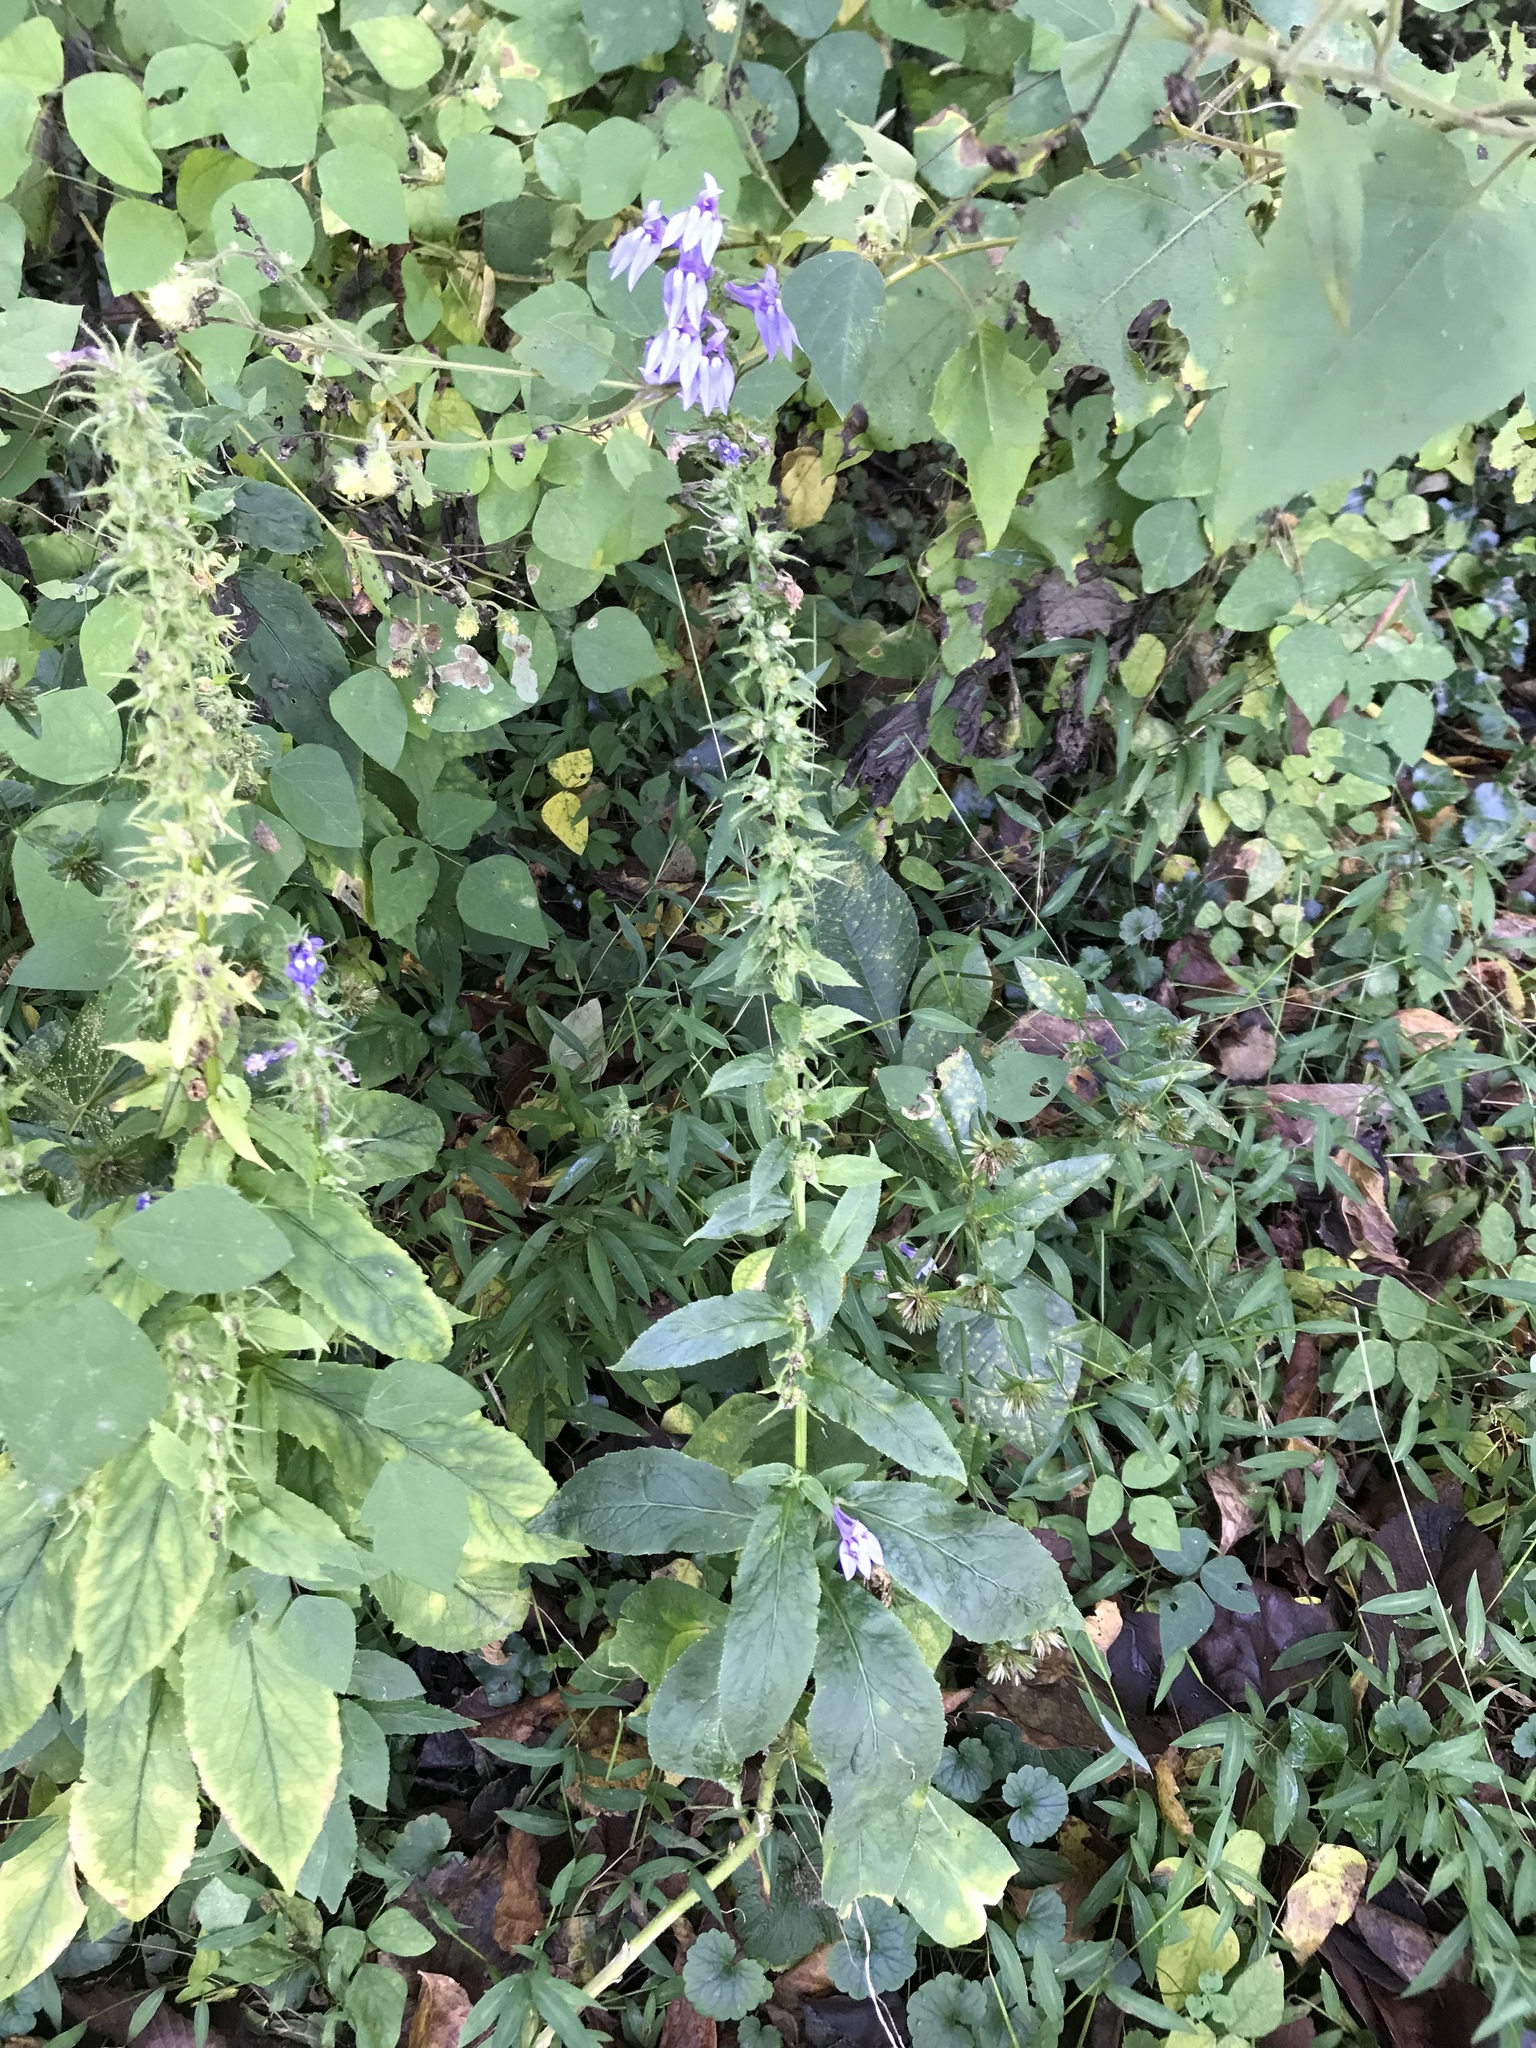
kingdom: Plantae
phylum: Tracheophyta
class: Magnoliopsida
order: Asterales
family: Campanulaceae
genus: Lobelia
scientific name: Lobelia siphilitica
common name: Great lobelia
